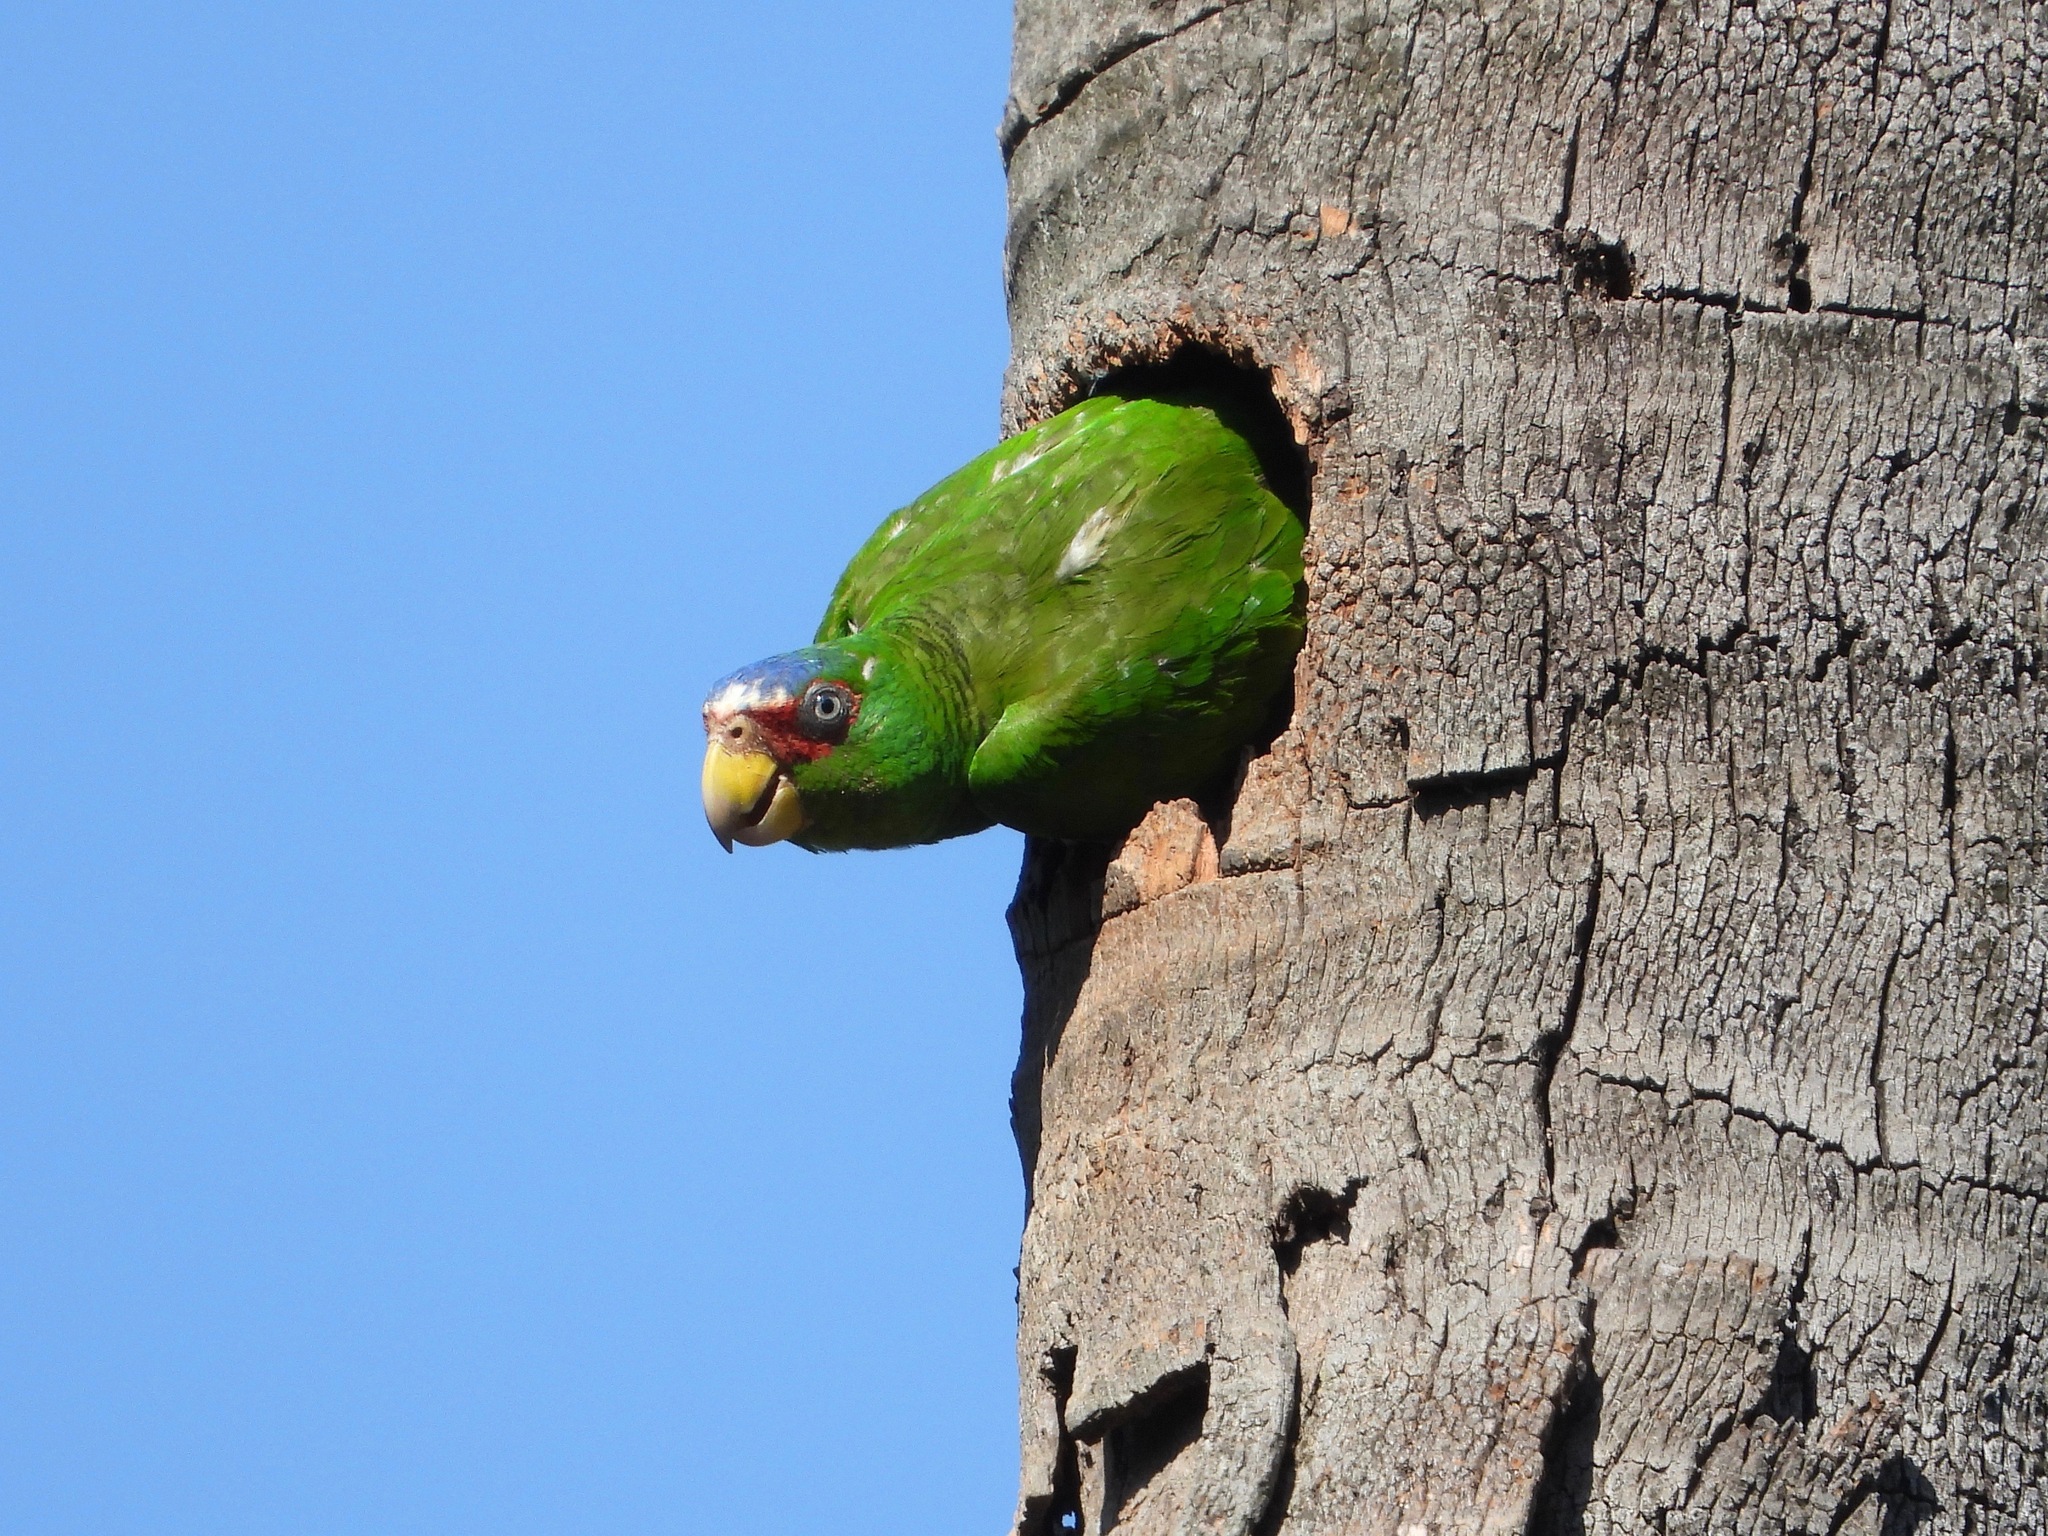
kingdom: Animalia
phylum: Chordata
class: Aves
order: Psittaciformes
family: Psittacidae
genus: Amazona
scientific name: Amazona albifrons
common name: White-fronted amazon
